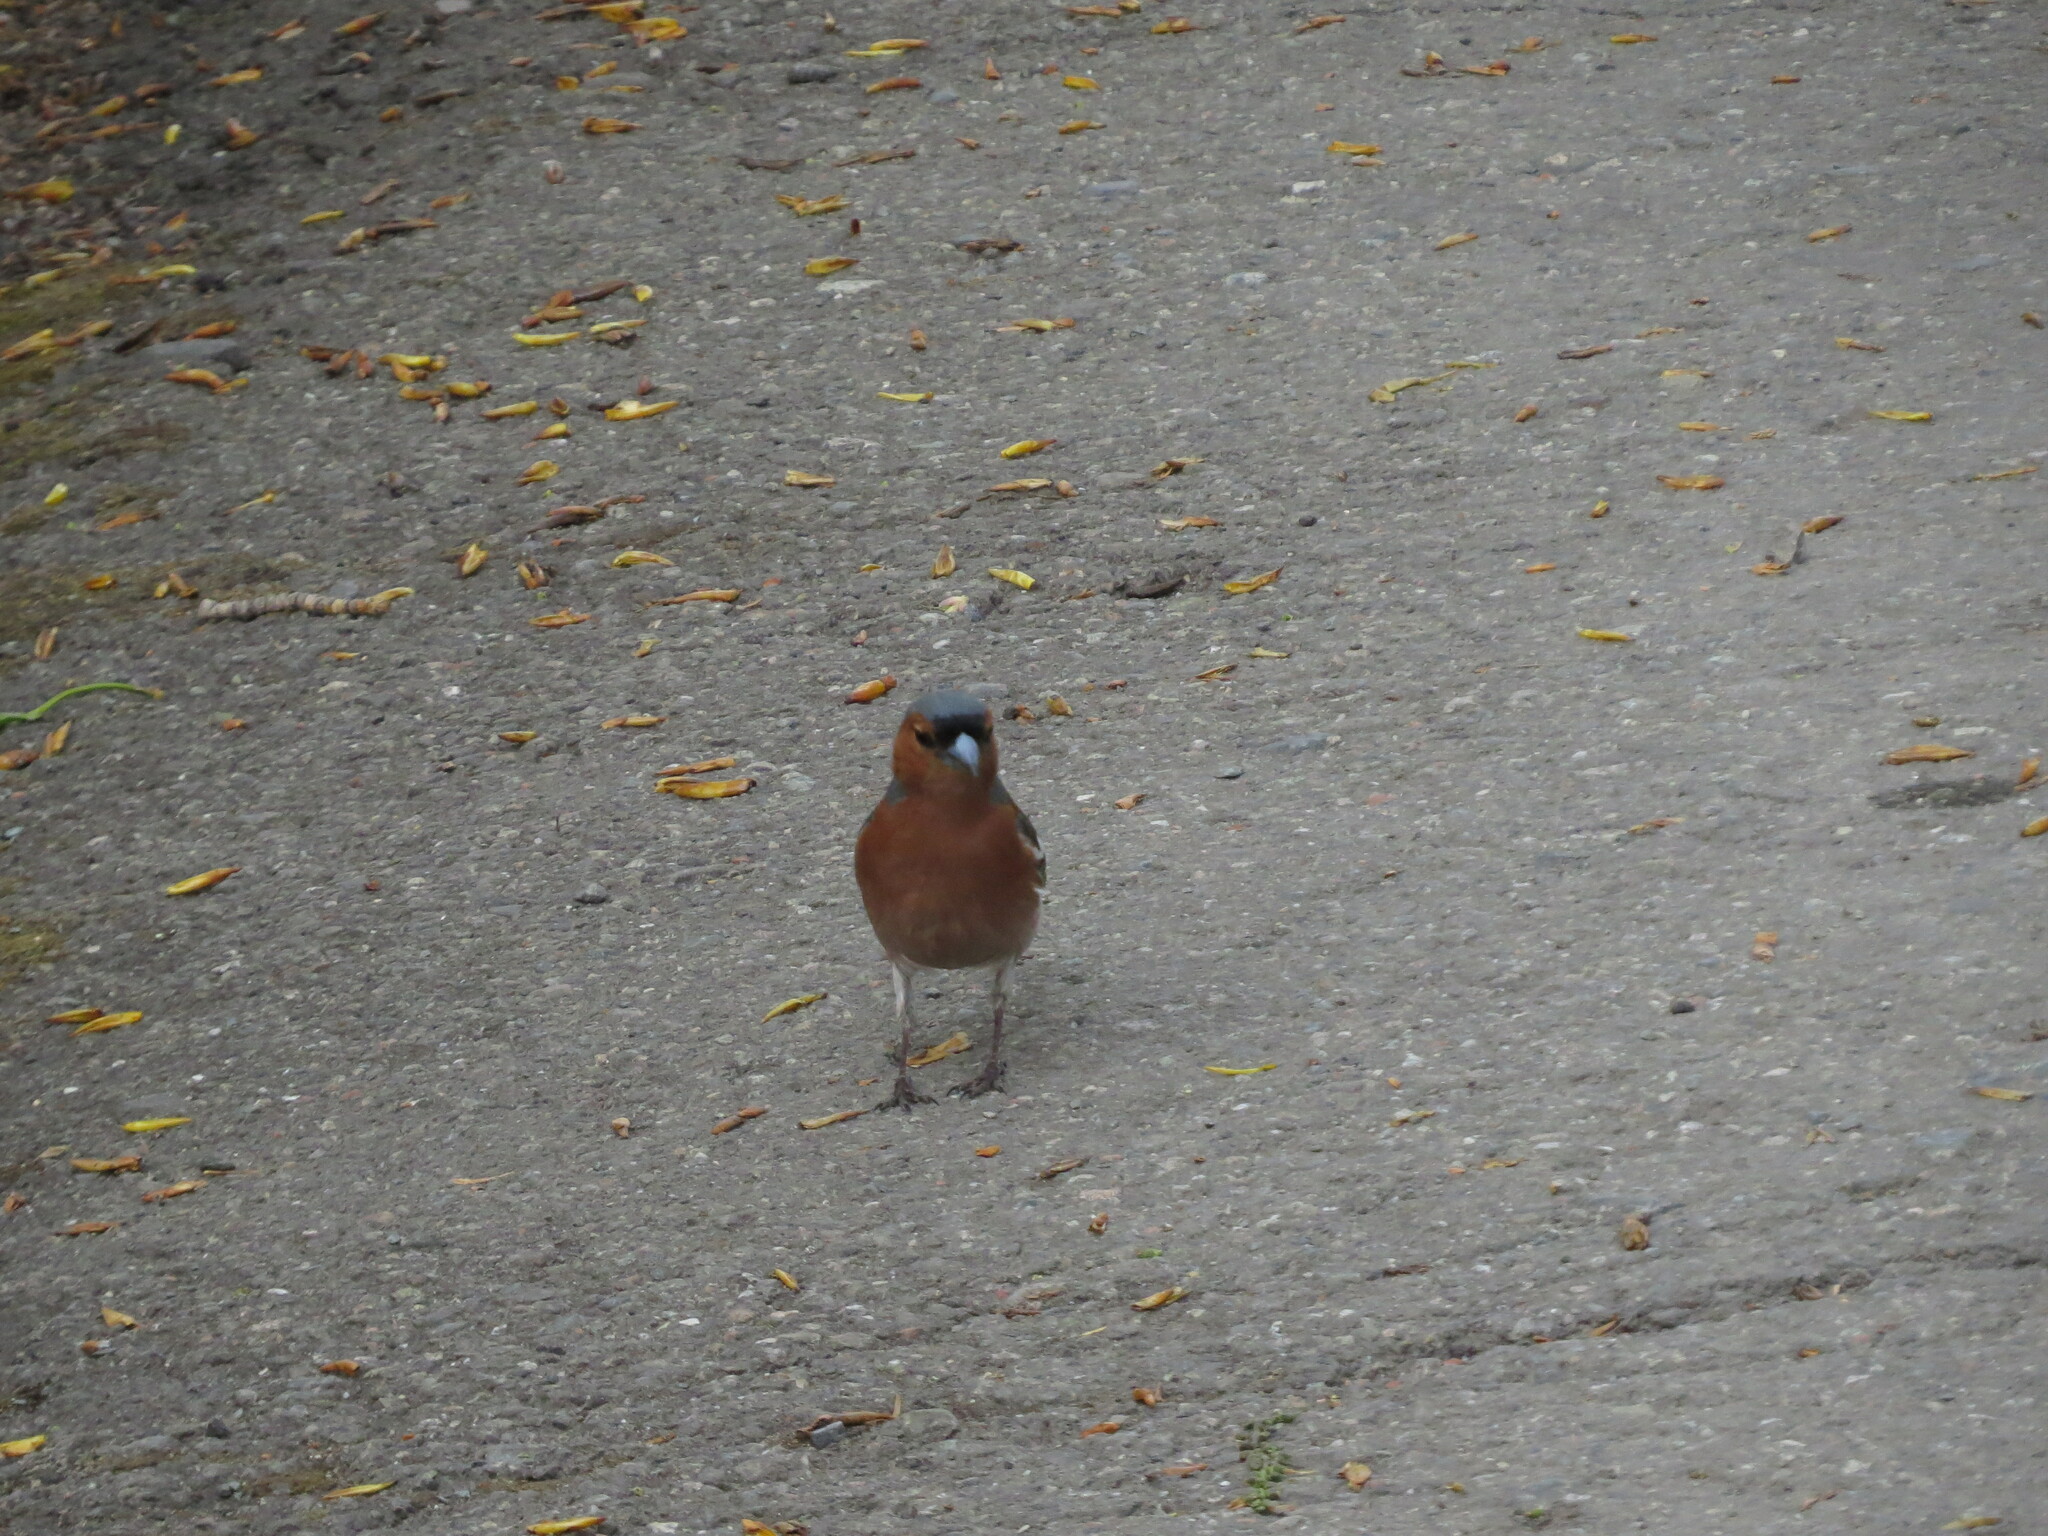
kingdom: Animalia
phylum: Chordata
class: Aves
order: Passeriformes
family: Fringillidae
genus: Fringilla
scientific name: Fringilla coelebs
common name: Common chaffinch
